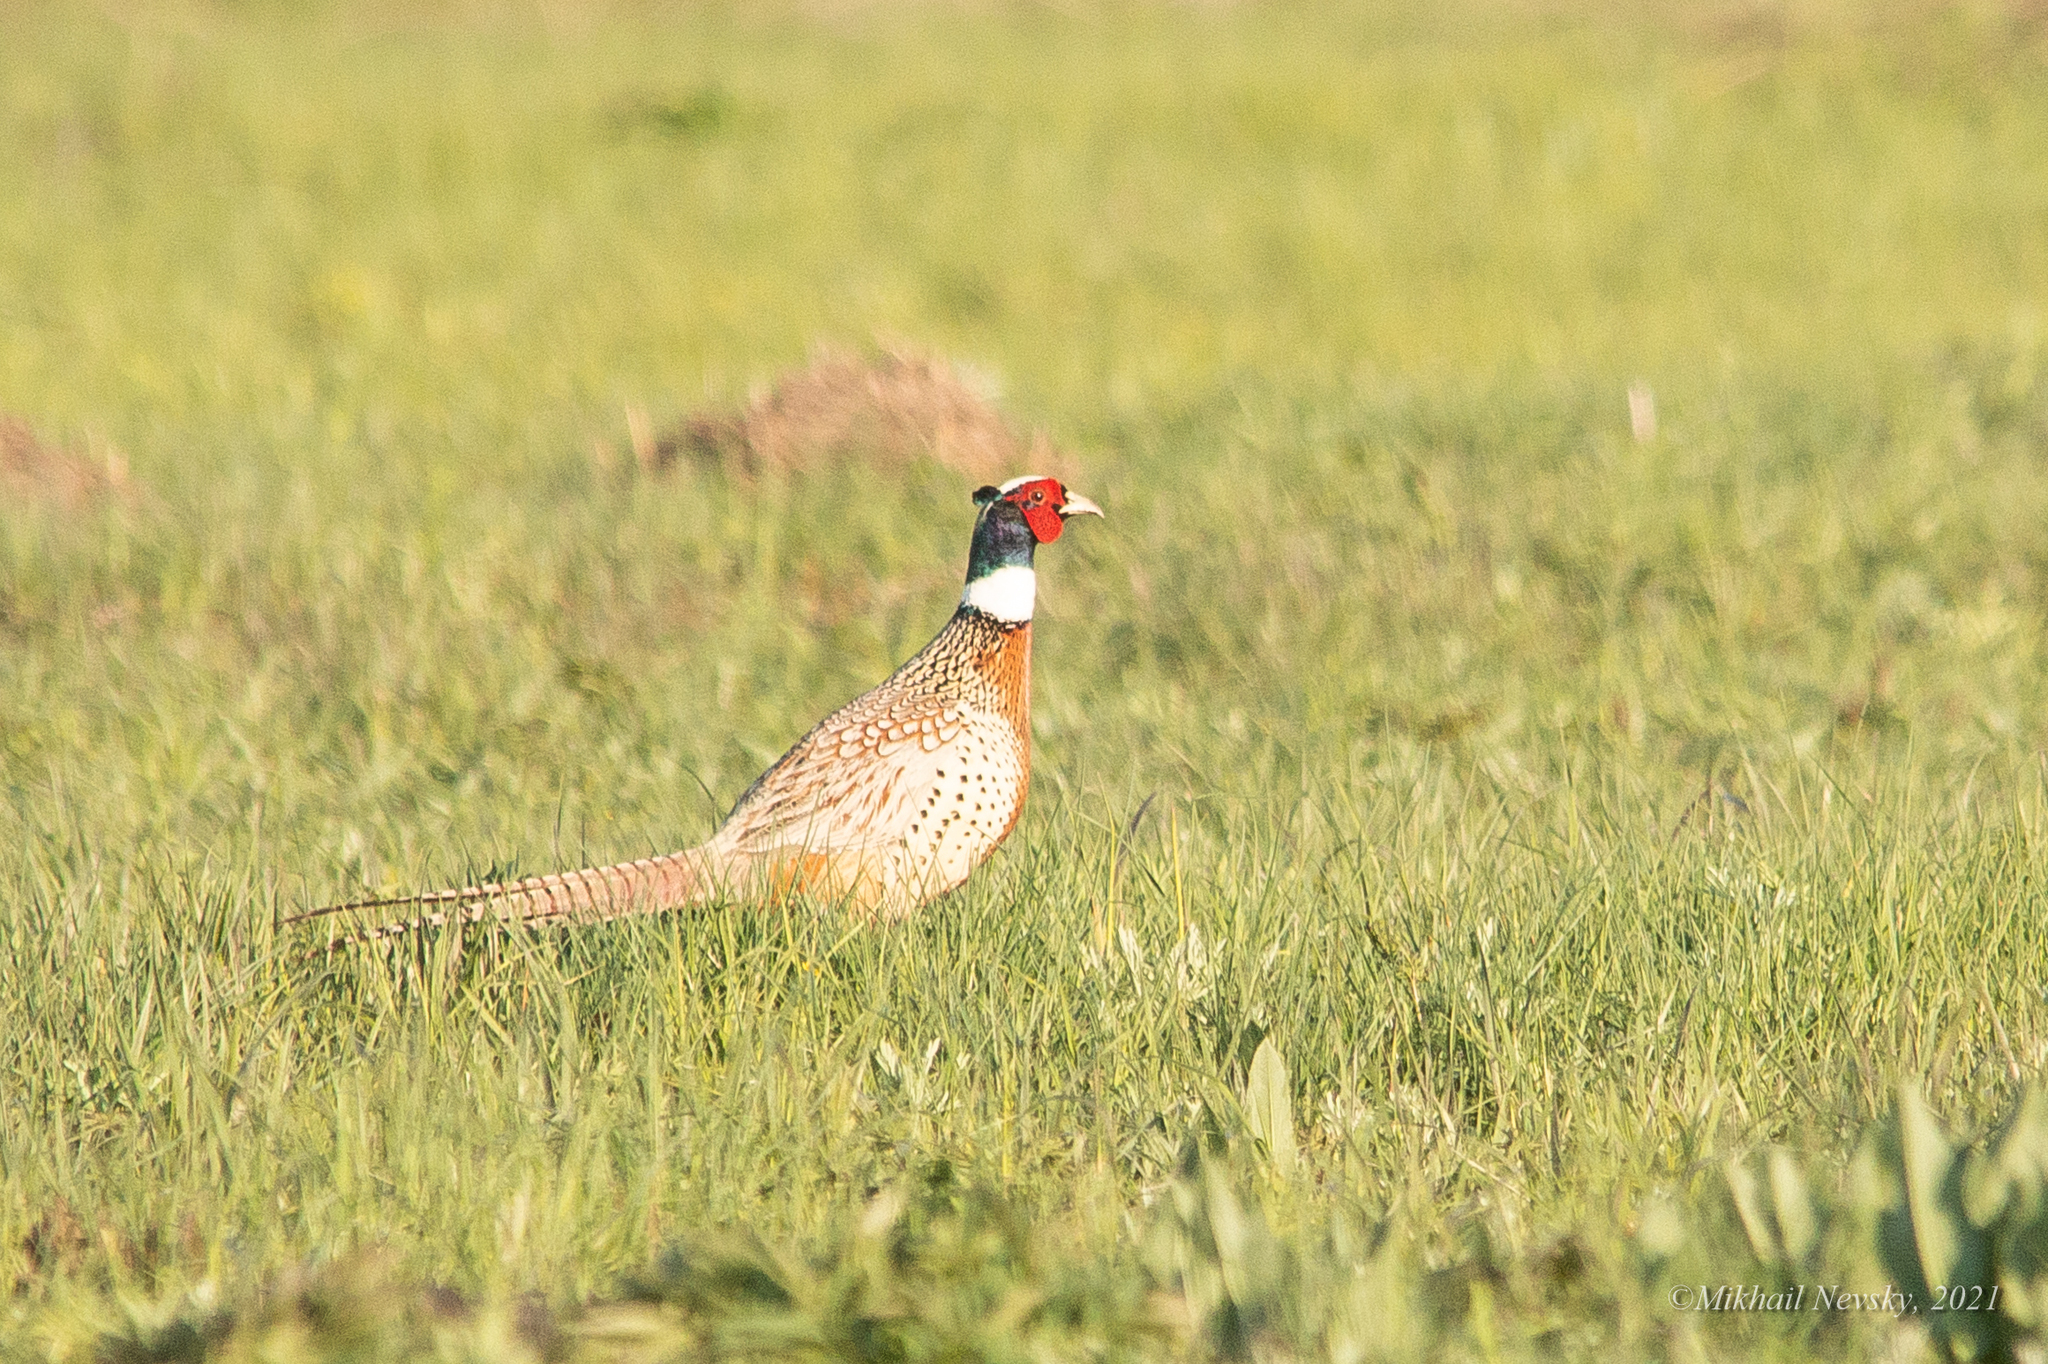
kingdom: Animalia
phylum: Chordata
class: Aves
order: Galliformes
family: Phasianidae
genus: Phasianus
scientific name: Phasianus colchicus
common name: Common pheasant
